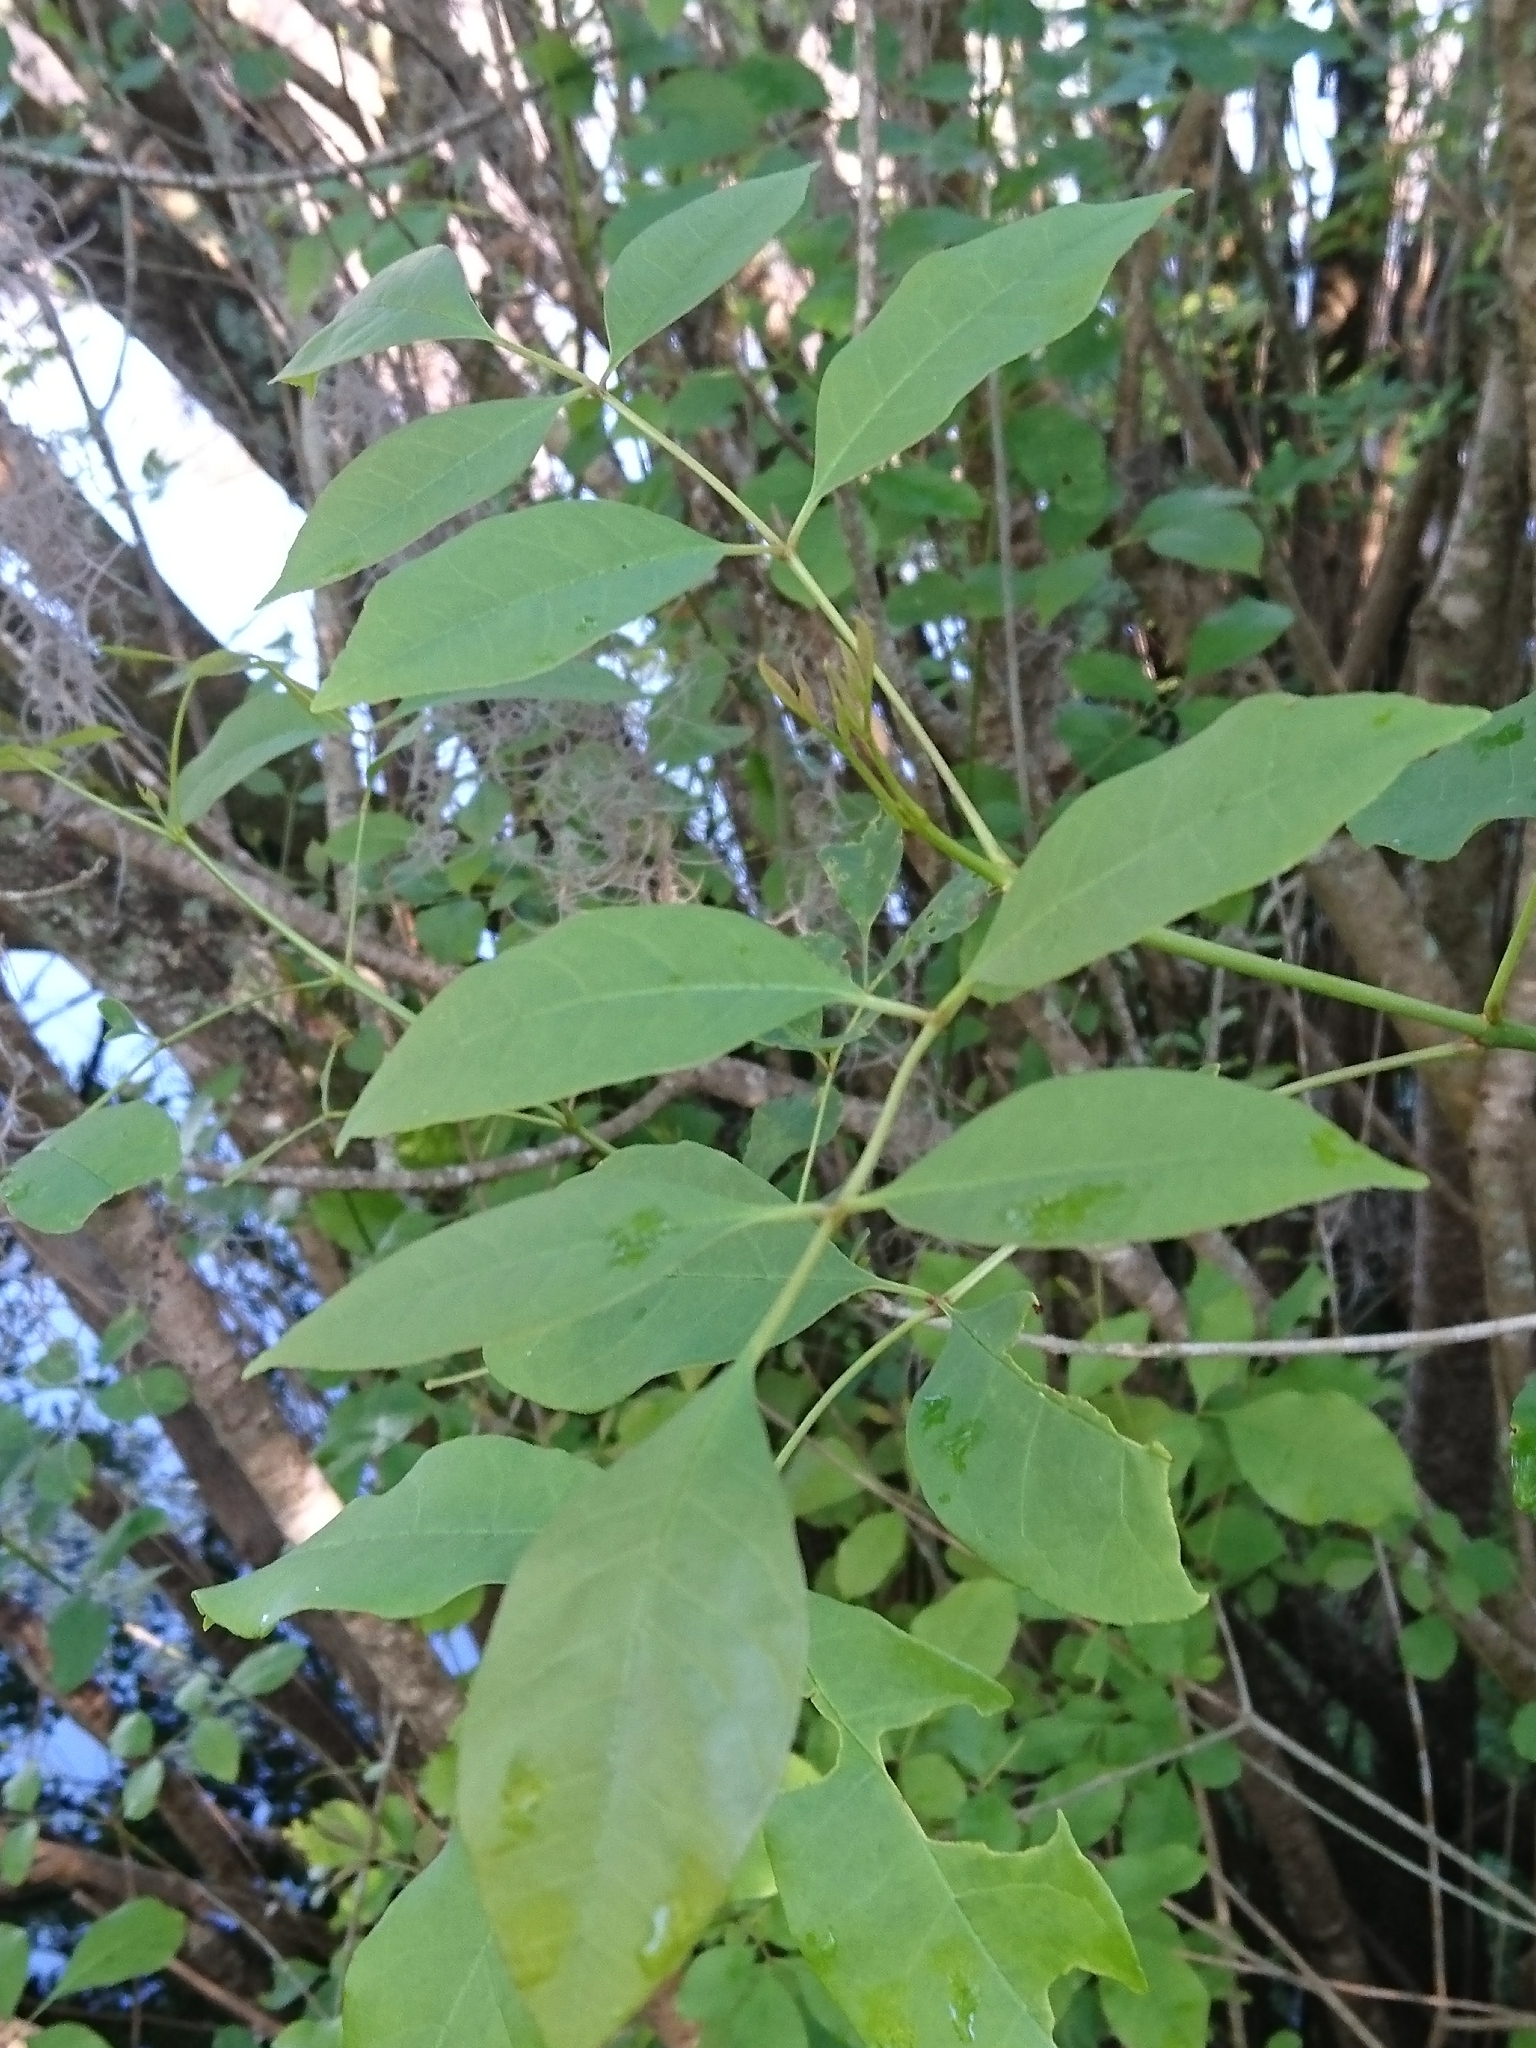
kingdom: Plantae
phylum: Tracheophyta
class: Magnoliopsida
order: Lamiales
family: Oleaceae
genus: Fraxinus
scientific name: Fraxinus caroliniana
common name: Carolina ash
